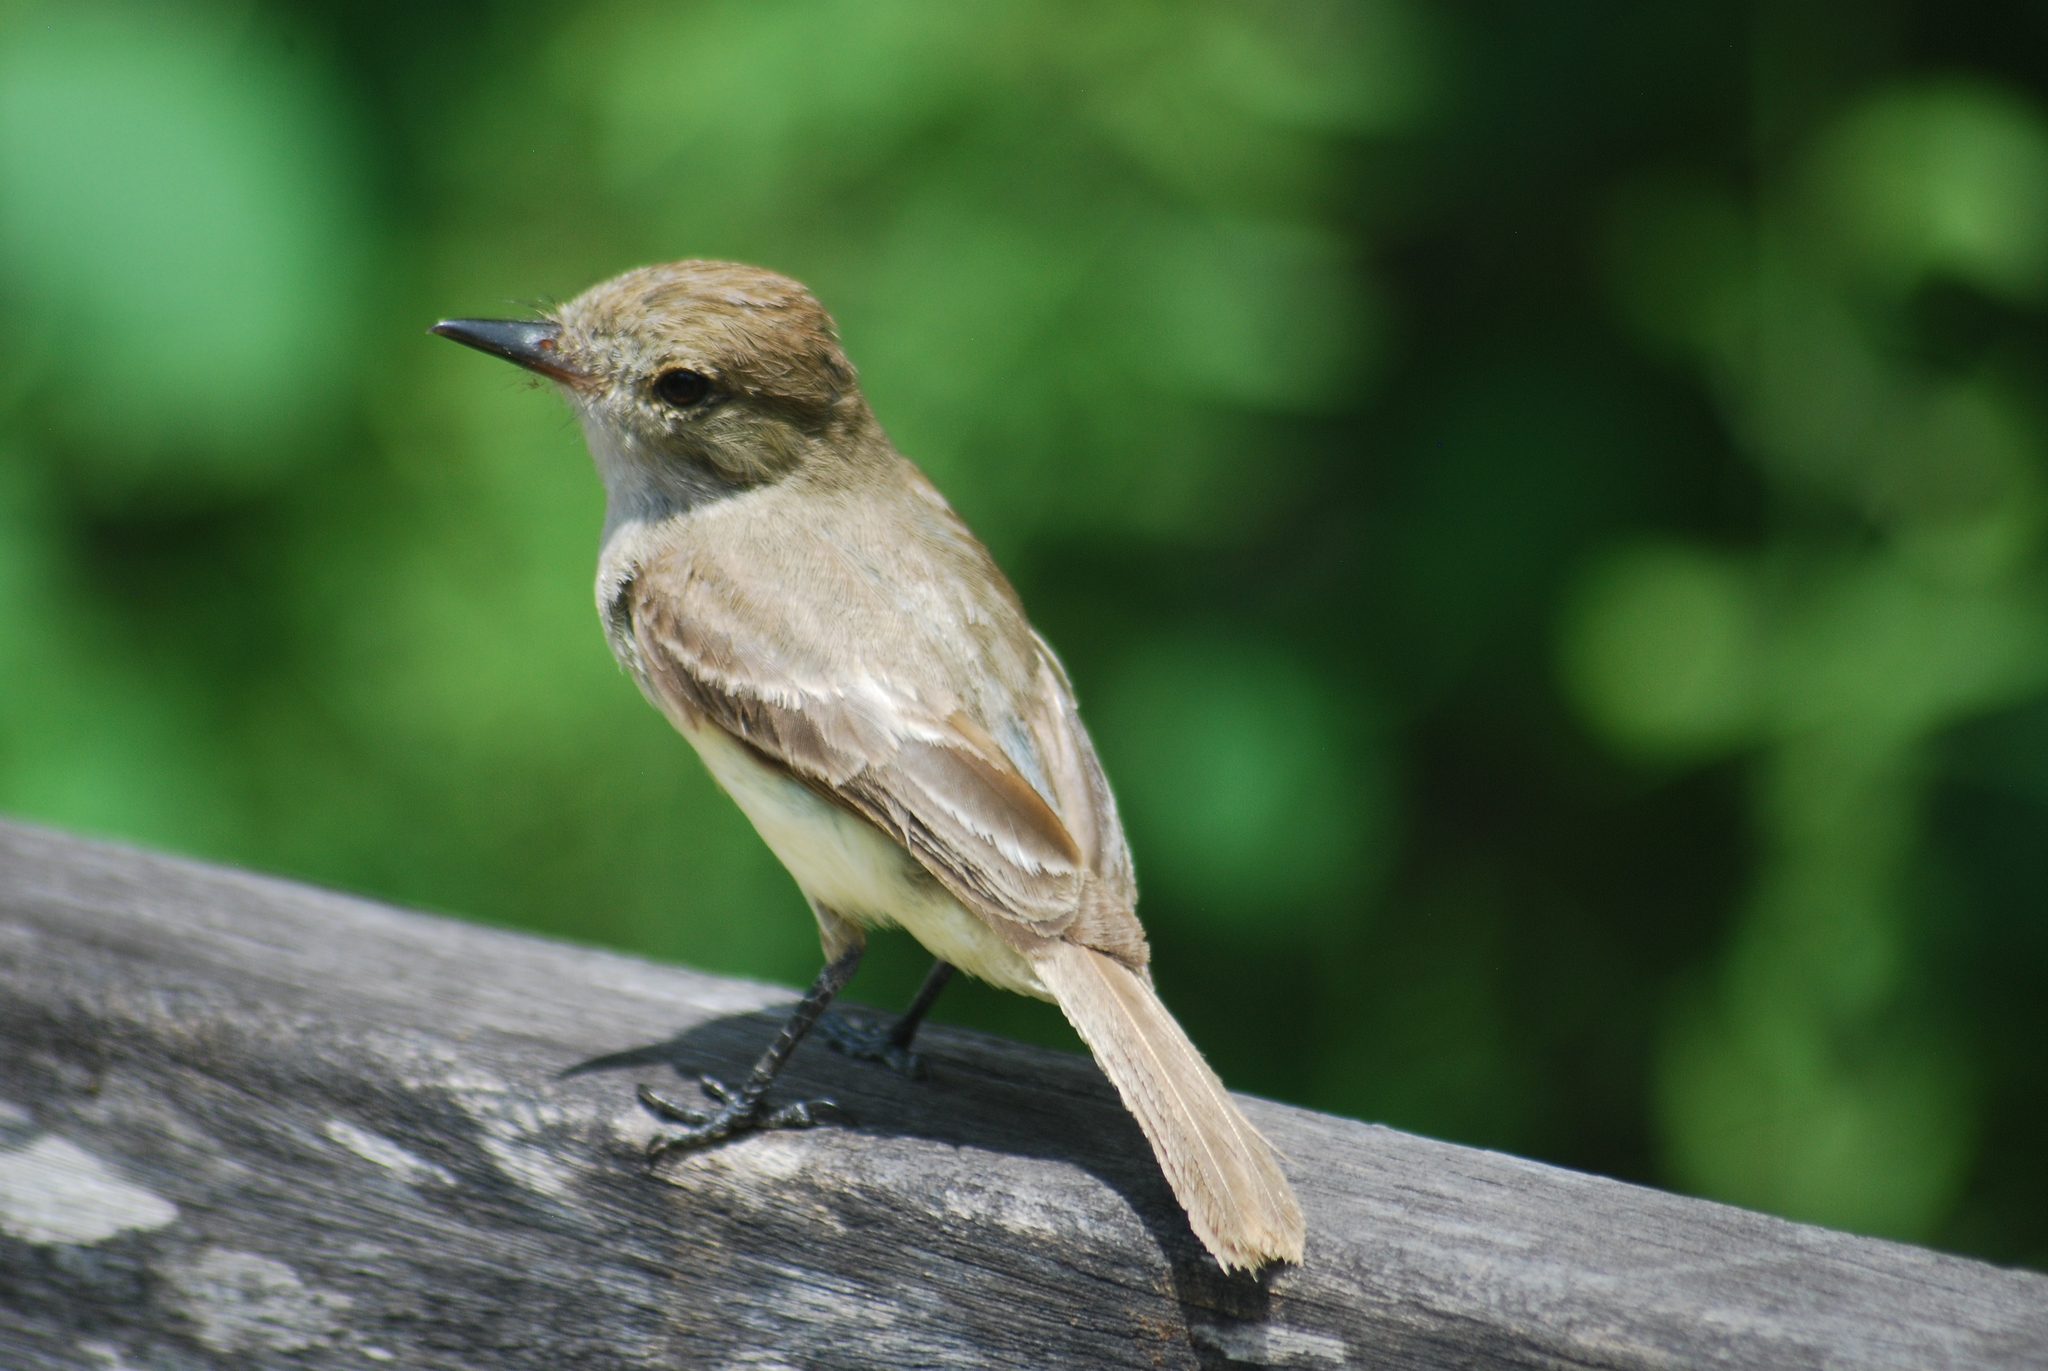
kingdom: Animalia
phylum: Chordata
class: Aves
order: Passeriformes
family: Tyrannidae
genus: Myiarchus
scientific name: Myiarchus magnirostris
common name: Galapagos flycatcher
